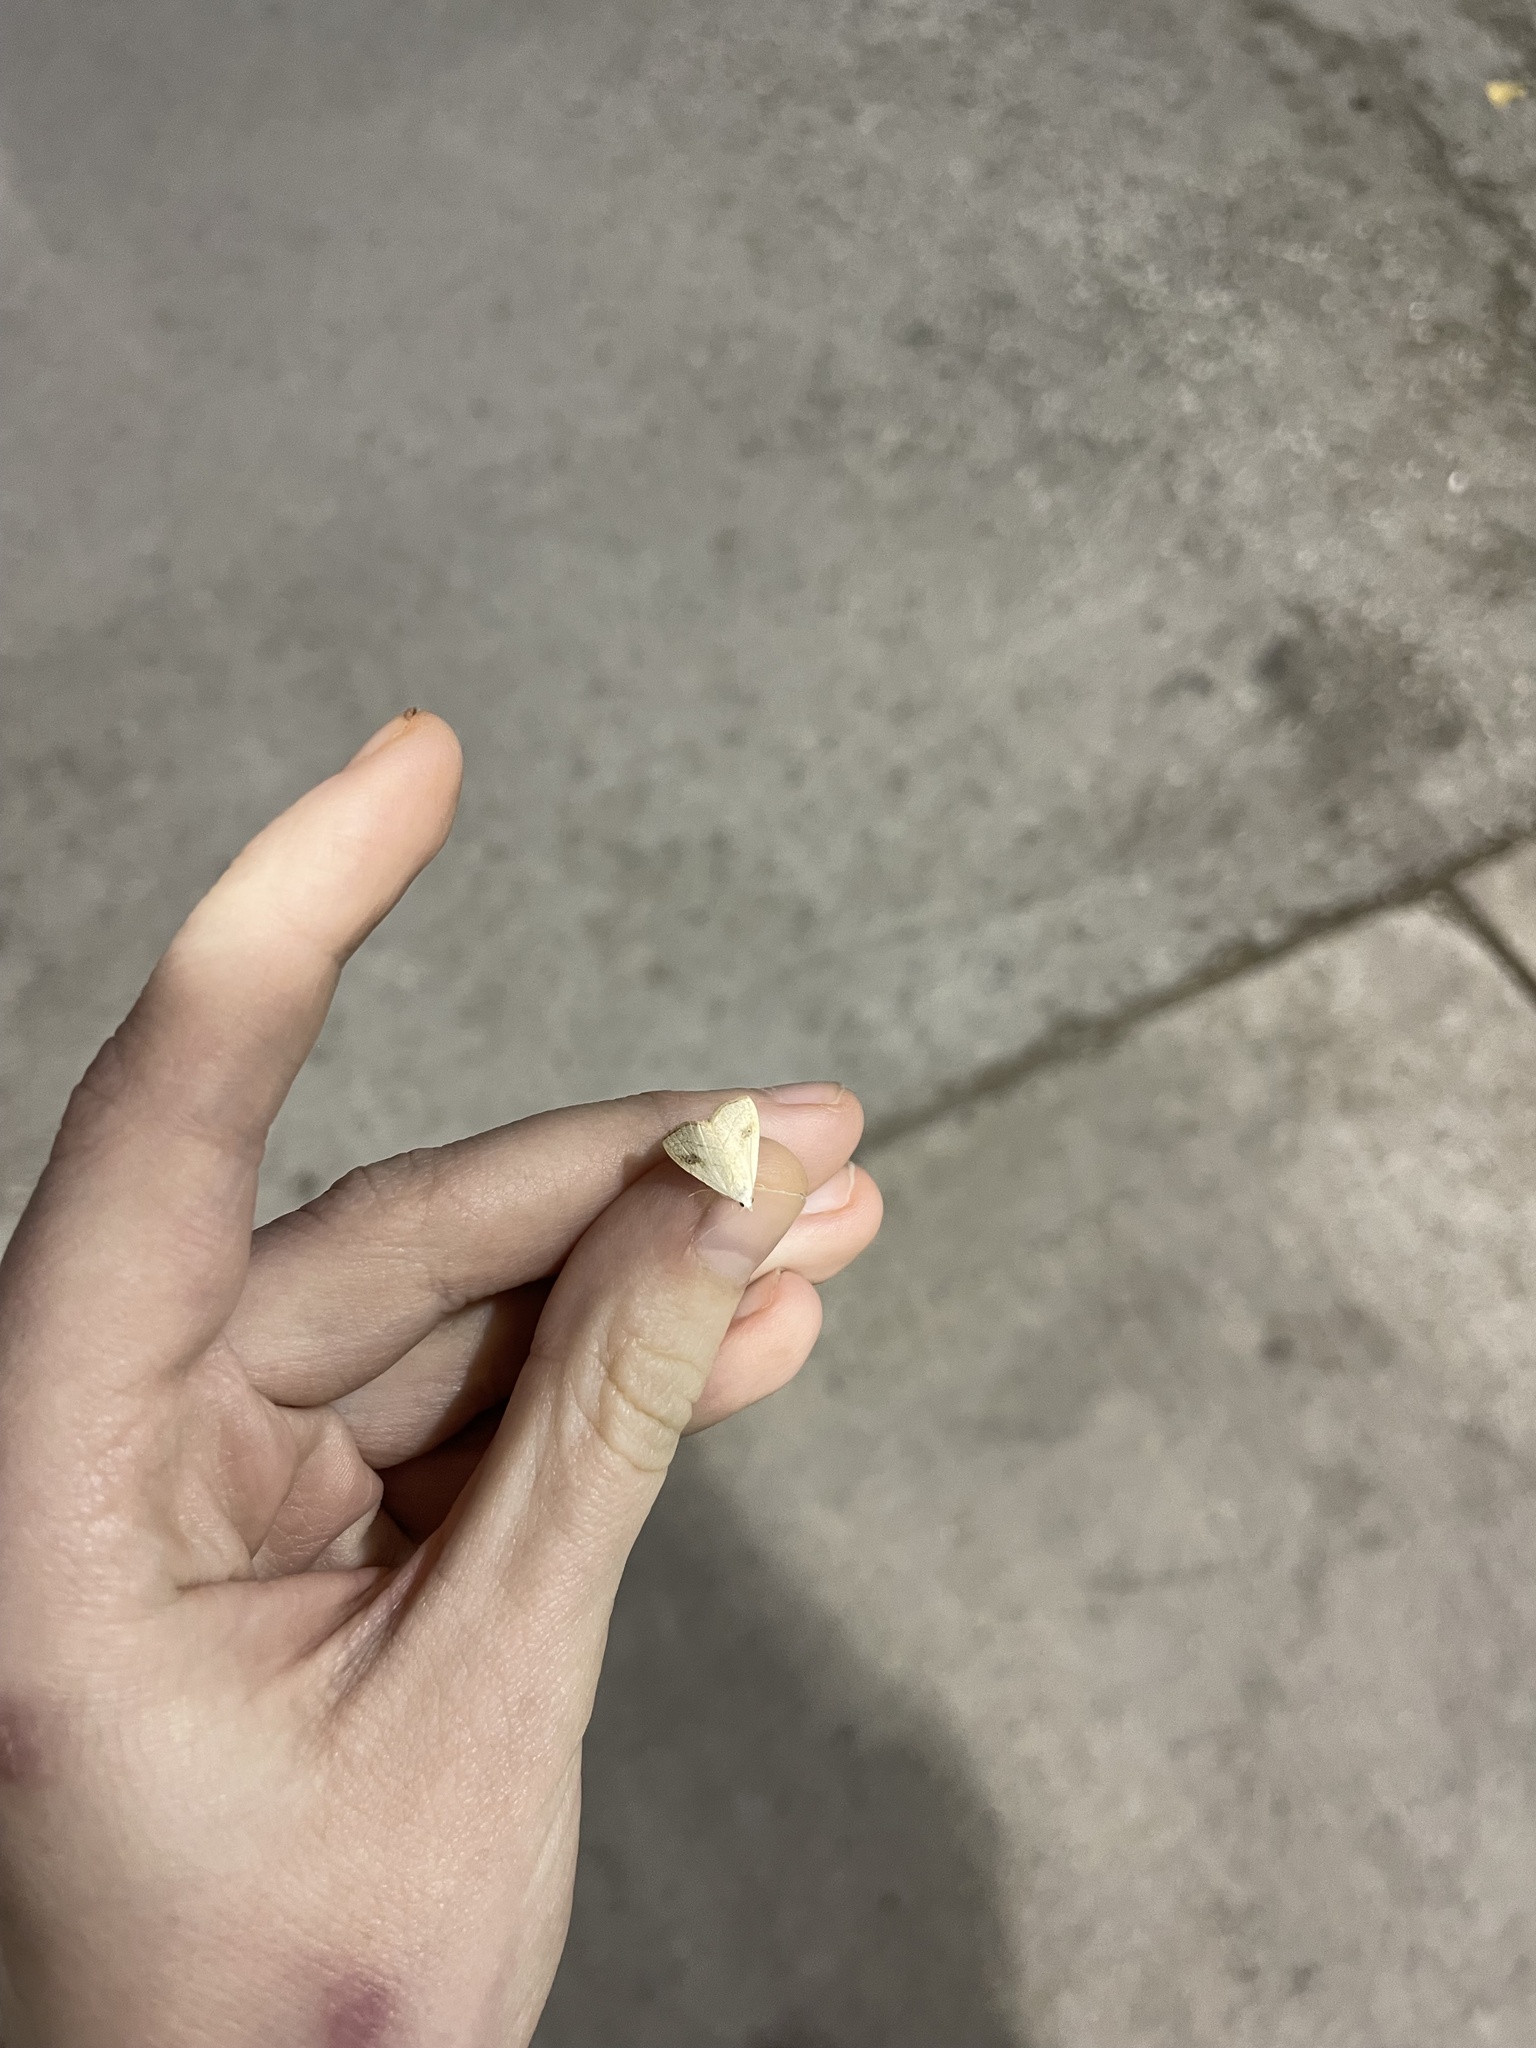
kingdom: Animalia
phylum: Arthropoda
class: Insecta
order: Lepidoptera
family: Erebidae
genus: Rivula
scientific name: Rivula propinqualis
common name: Spotted grass moth
